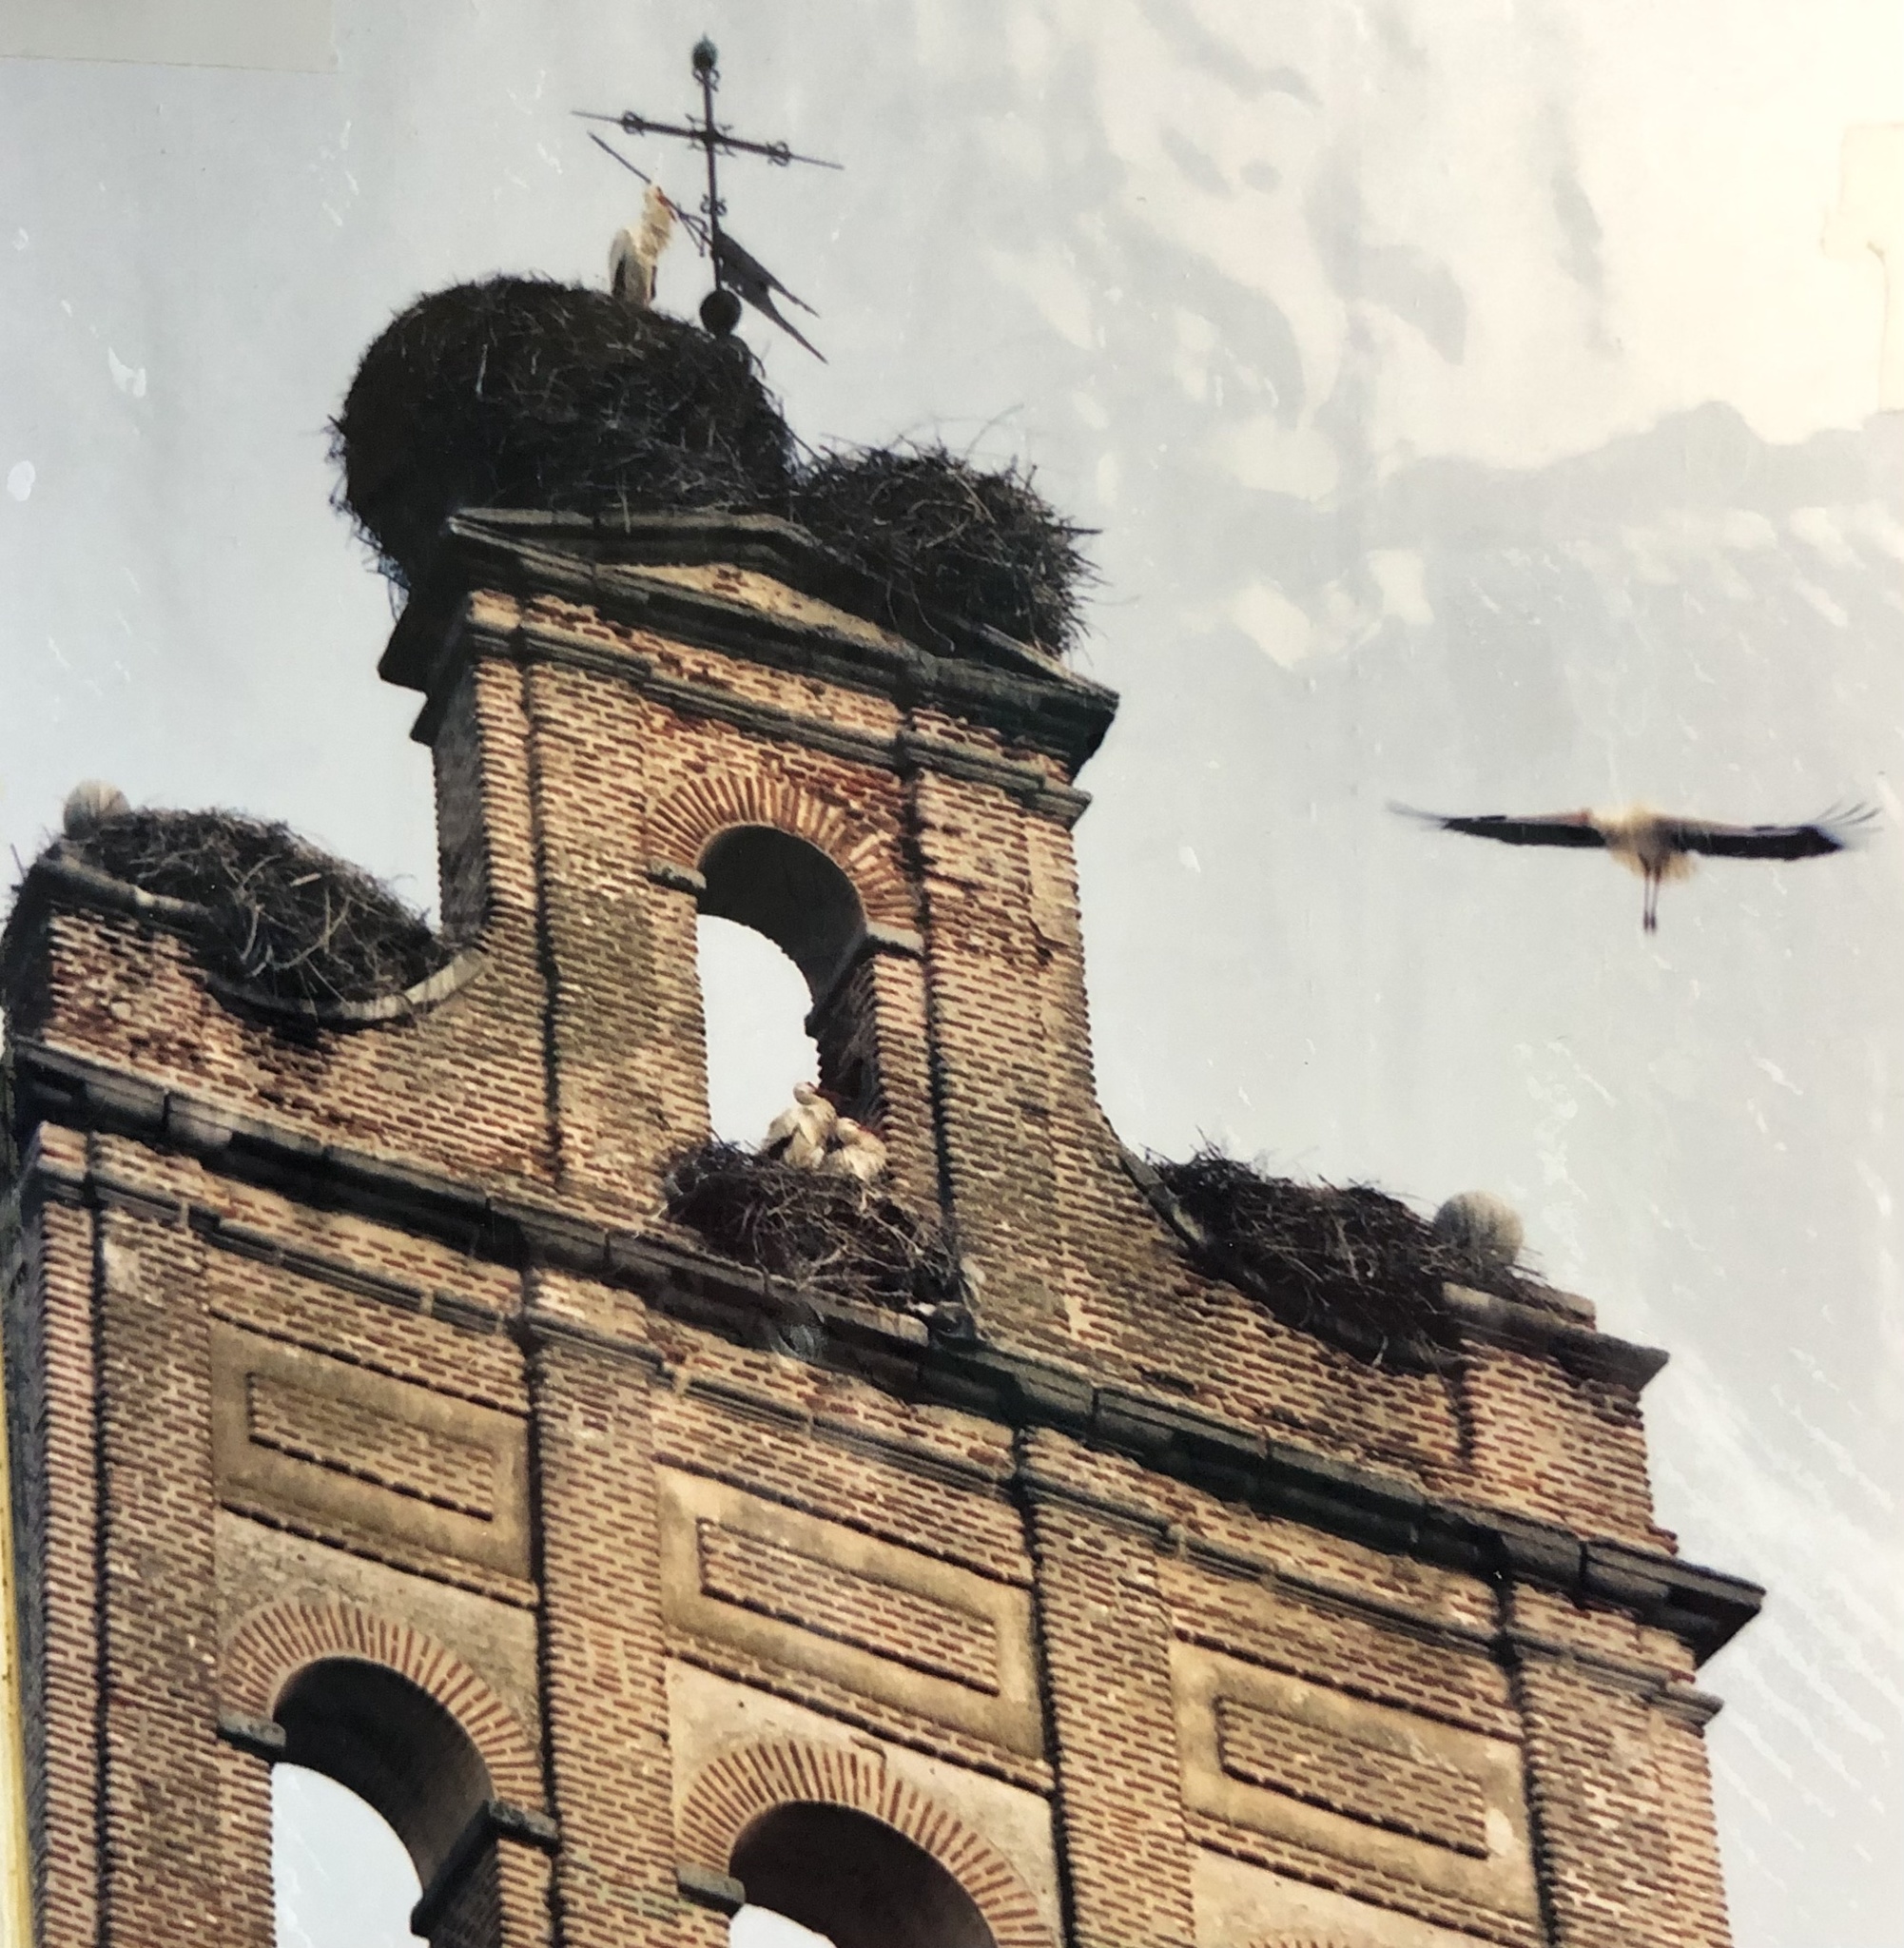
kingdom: Animalia
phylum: Chordata
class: Aves
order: Ciconiiformes
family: Ciconiidae
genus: Ciconia
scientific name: Ciconia ciconia
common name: White stork
